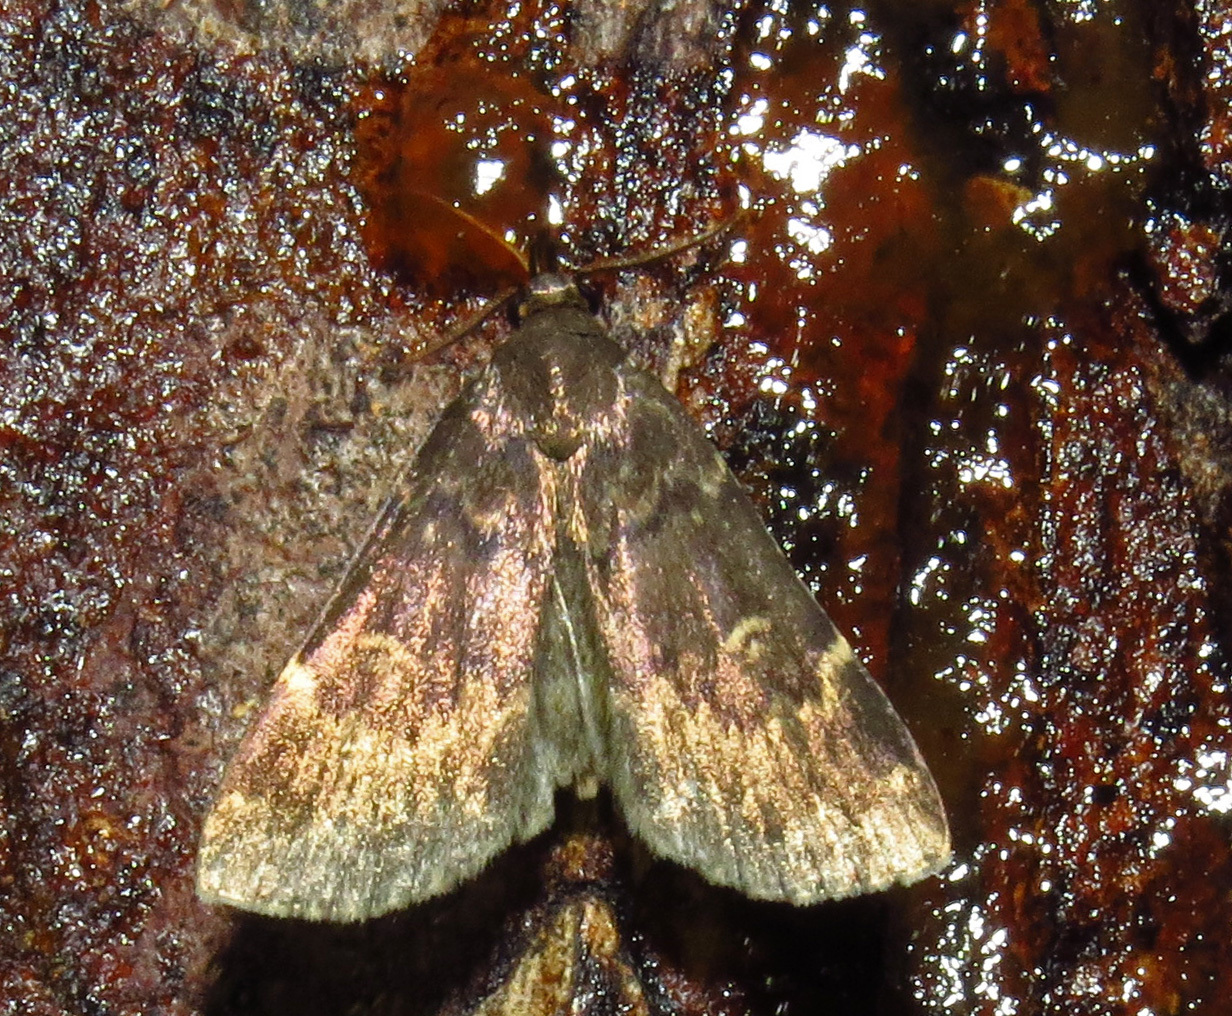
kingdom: Animalia
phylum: Arthropoda
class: Insecta
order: Lepidoptera
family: Erebidae
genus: Idia
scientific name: Idia lubricalis
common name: Twin-striped tabby
